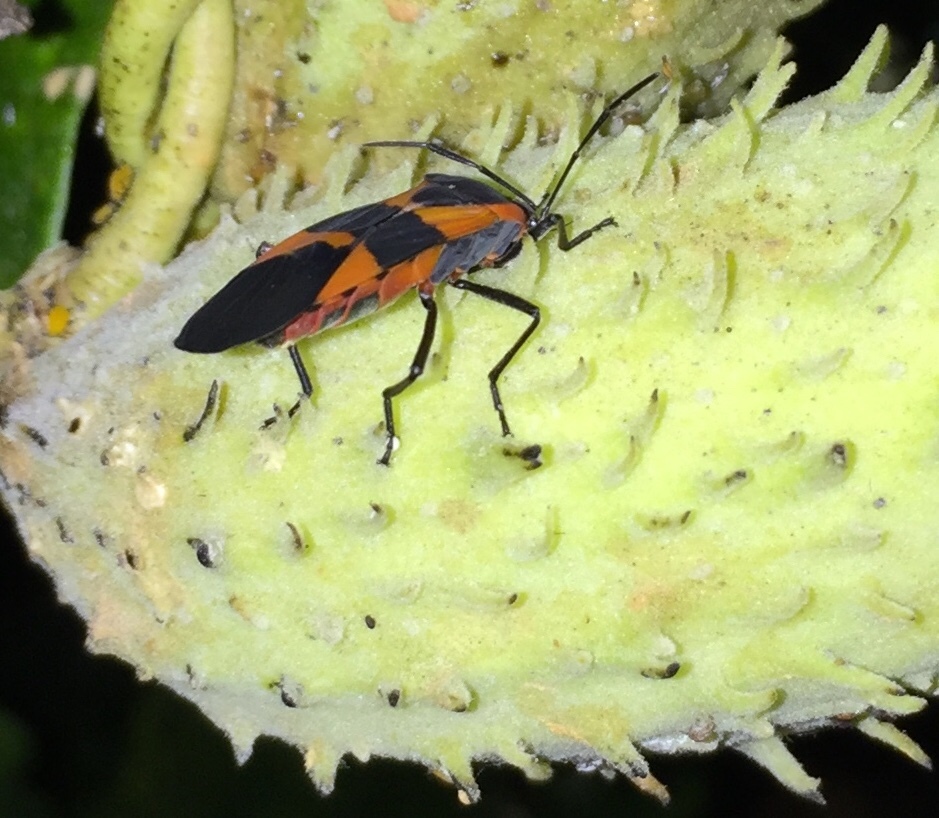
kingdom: Animalia
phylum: Arthropoda
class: Insecta
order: Hemiptera
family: Lygaeidae
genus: Oncopeltus
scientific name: Oncopeltus fasciatus
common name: Large milkweed bug
